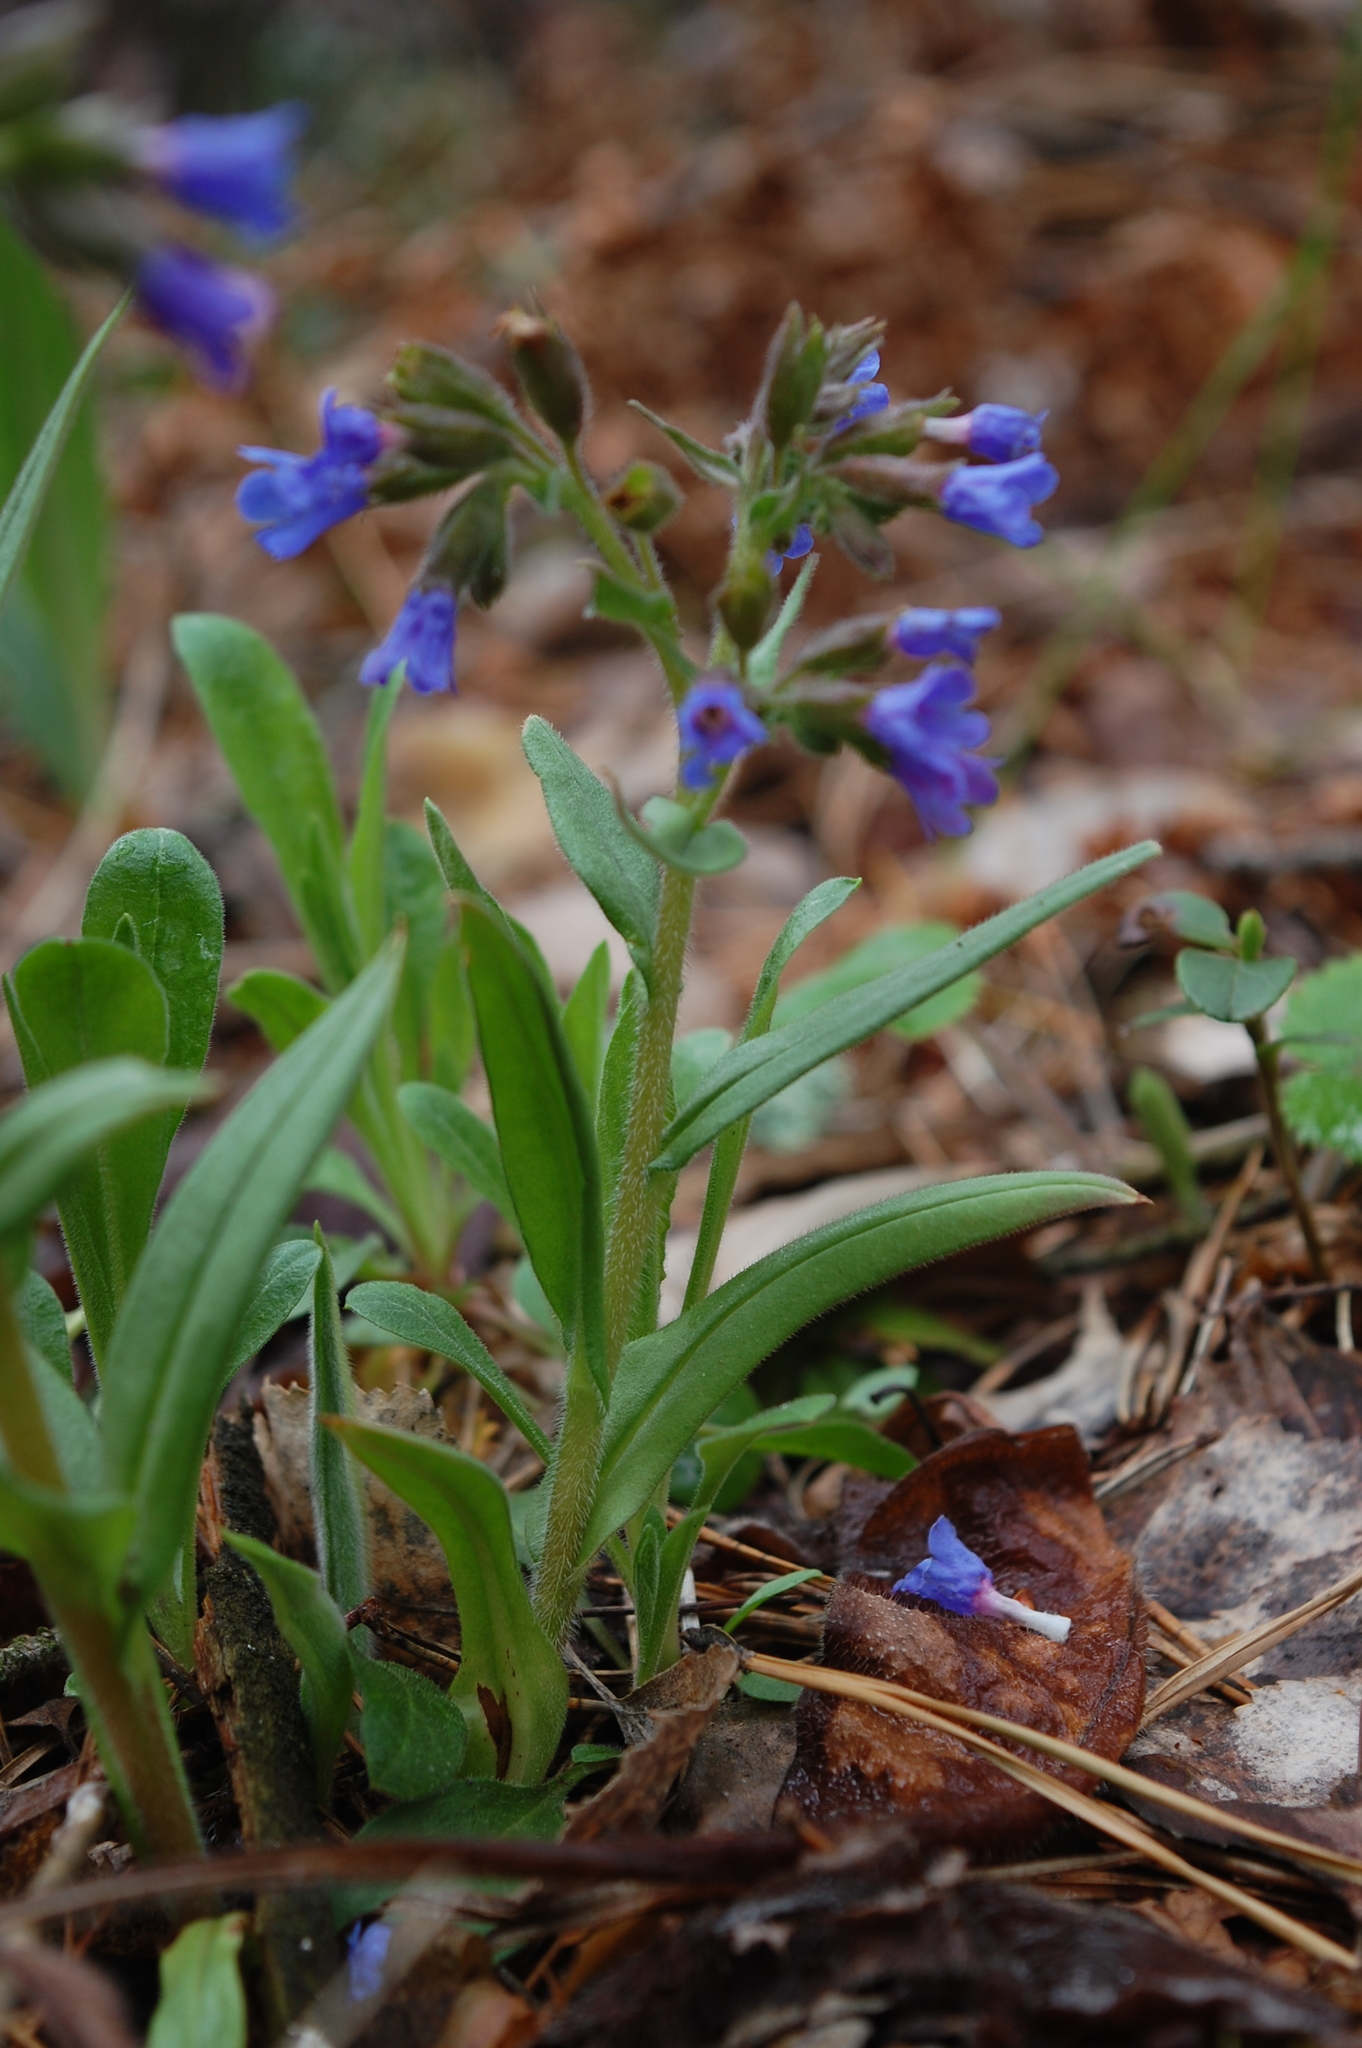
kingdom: Plantae
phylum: Tracheophyta
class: Magnoliopsida
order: Boraginales
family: Boraginaceae
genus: Pulmonaria
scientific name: Pulmonaria angustifolia
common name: Blue cowslip
